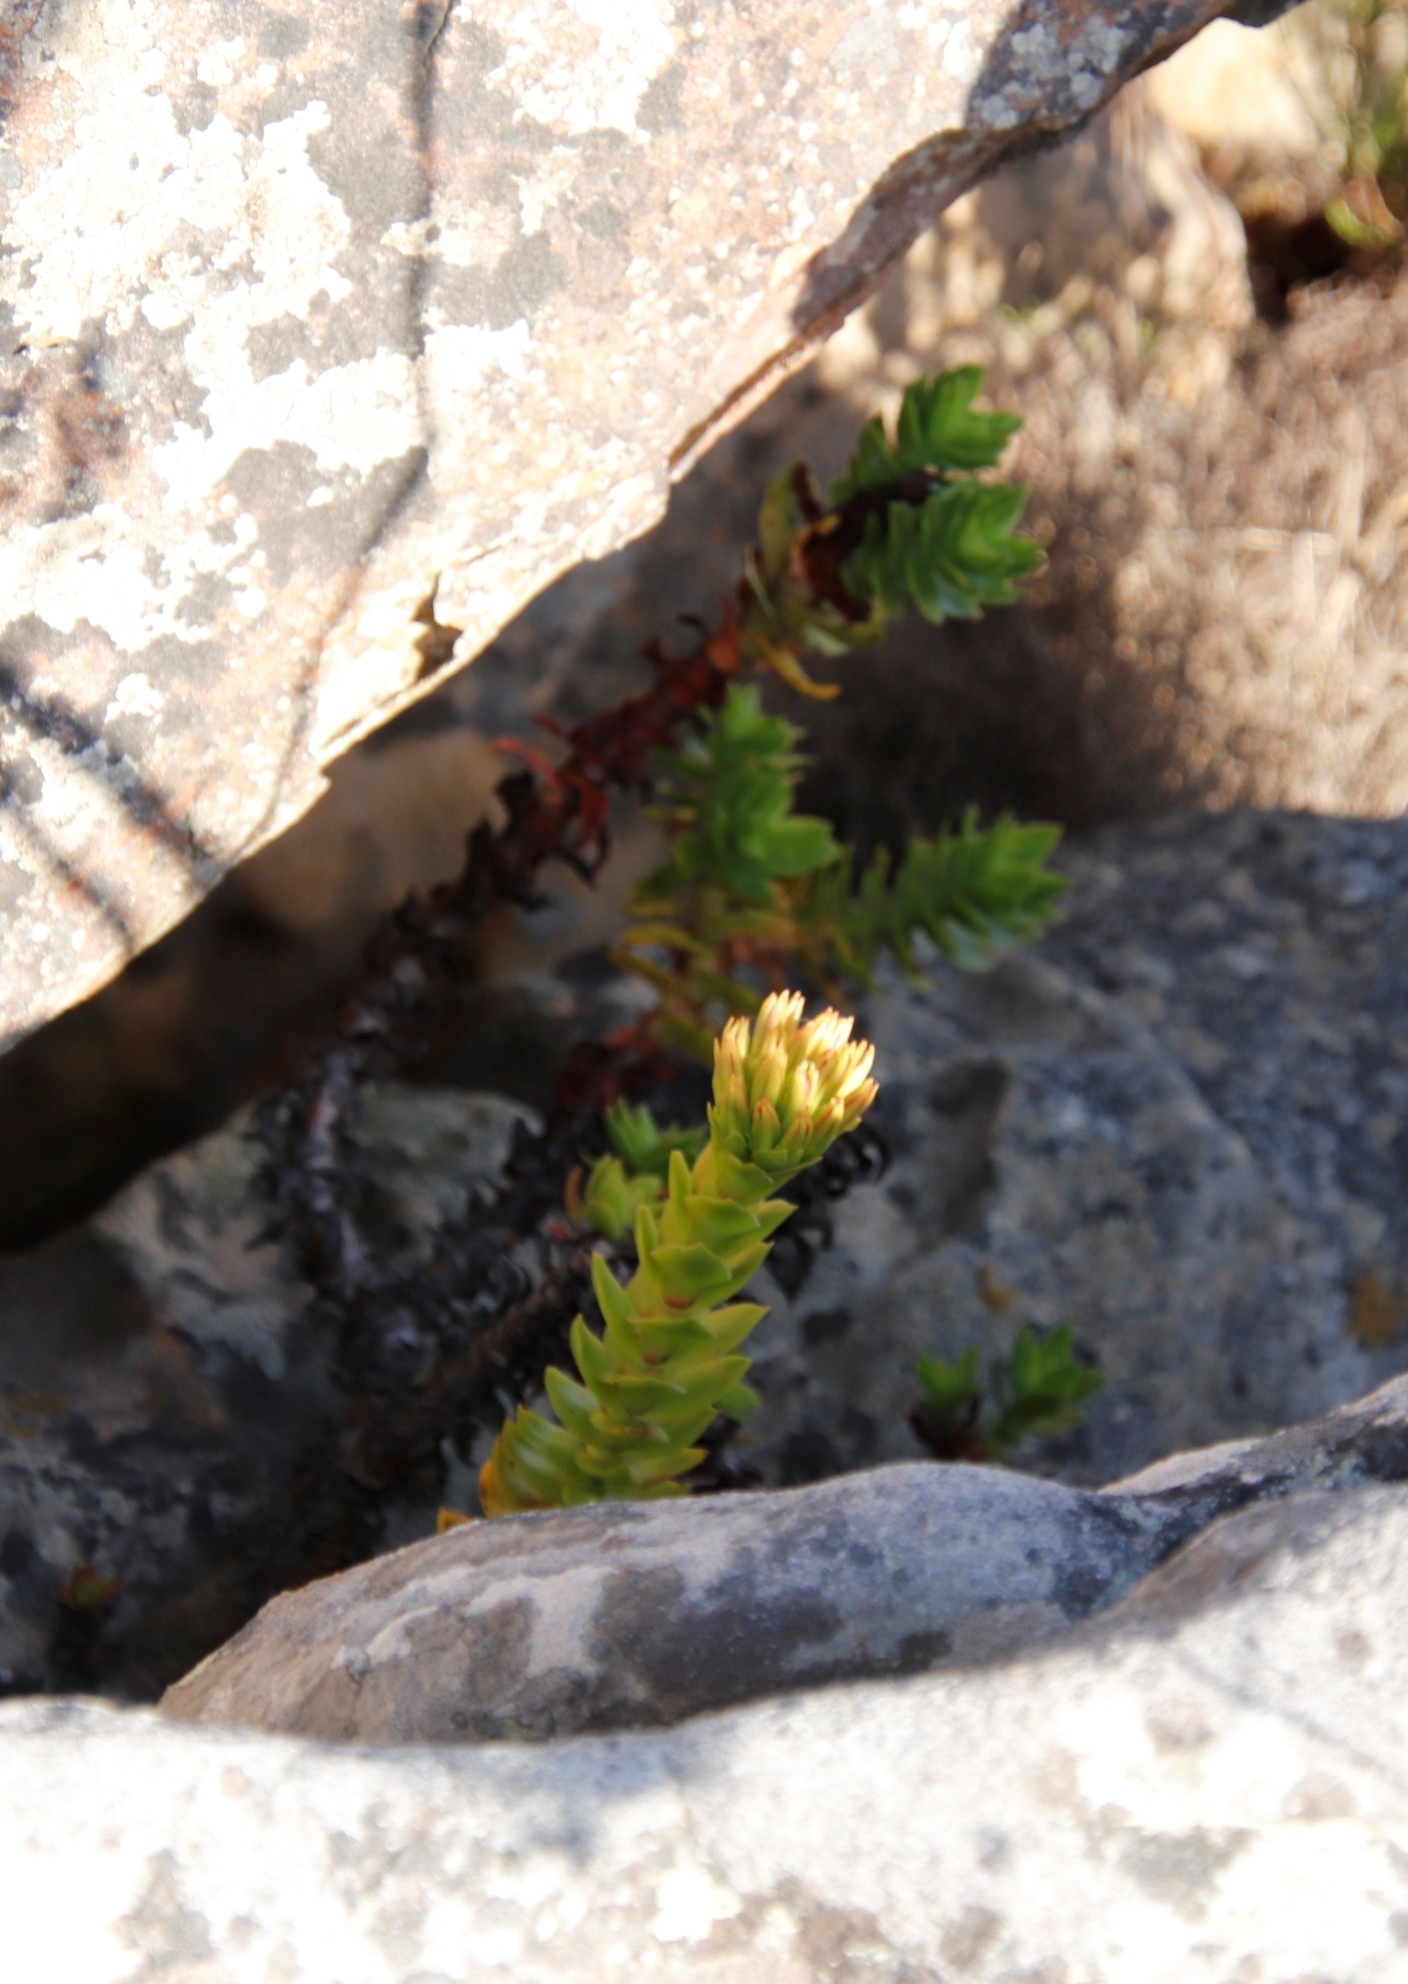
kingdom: Plantae
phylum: Tracheophyta
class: Magnoliopsida
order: Saxifragales
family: Crassulaceae
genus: Crassula
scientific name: Crassula coccinea
